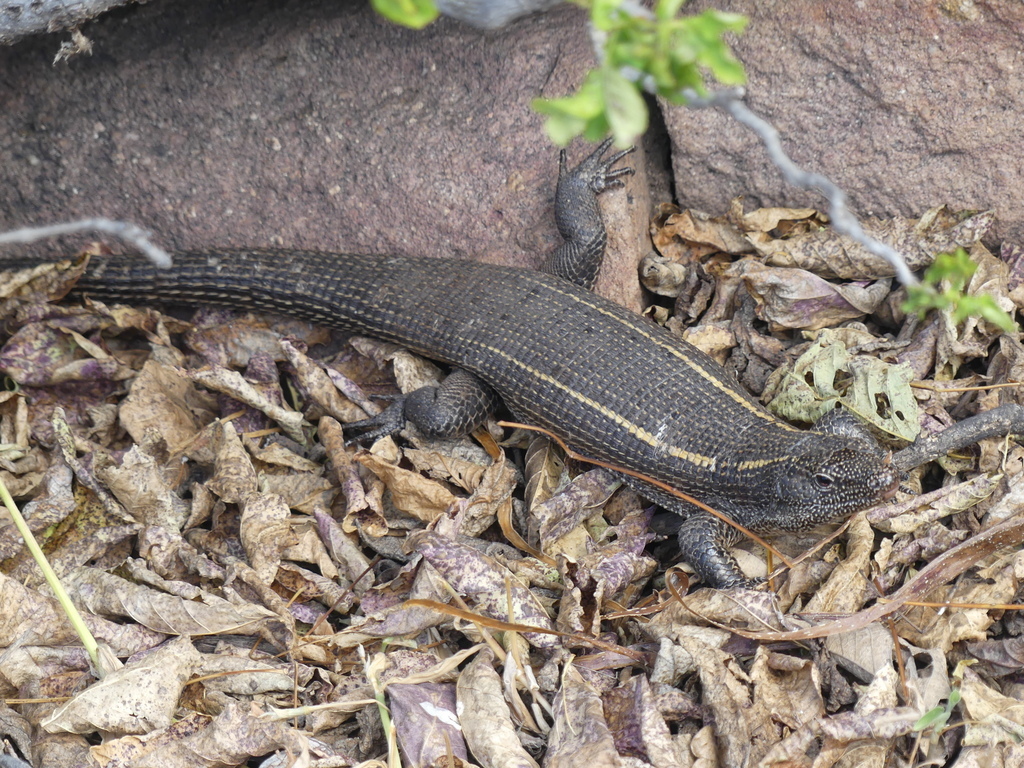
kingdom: Animalia
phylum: Chordata
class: Squamata
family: Gerrhosauridae
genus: Matobosaurus
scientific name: Matobosaurus validus
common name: Common giant plated lizard
